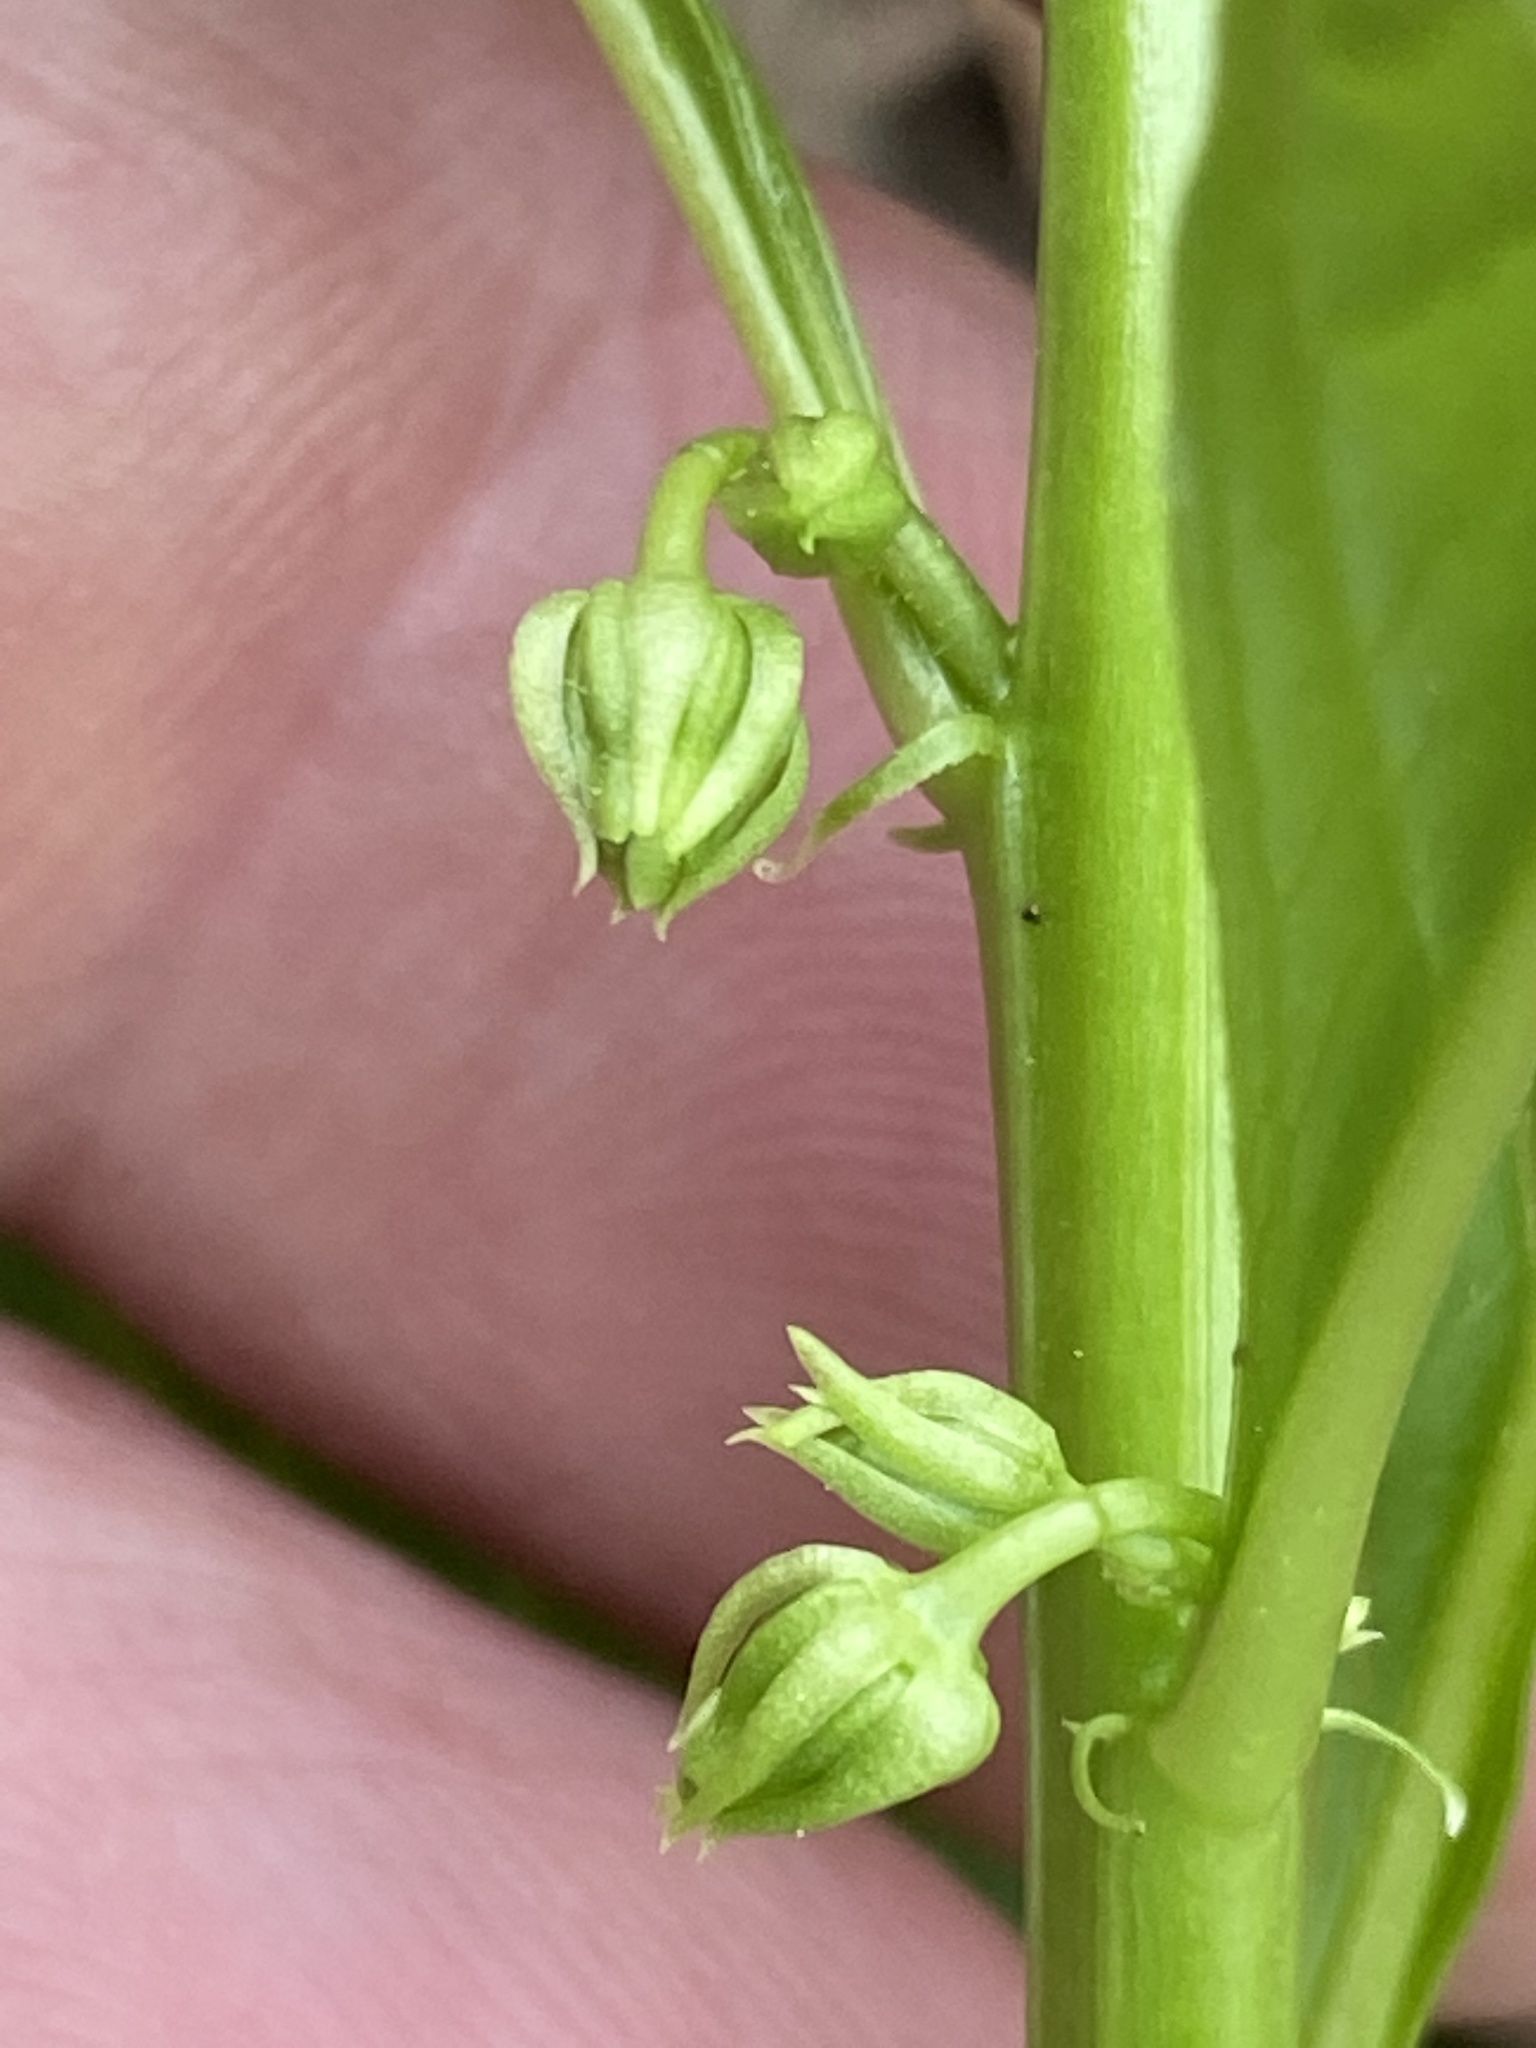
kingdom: Plantae
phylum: Tracheophyta
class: Magnoliopsida
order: Malpighiales
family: Violaceae
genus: Cubelium
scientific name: Cubelium concolor
